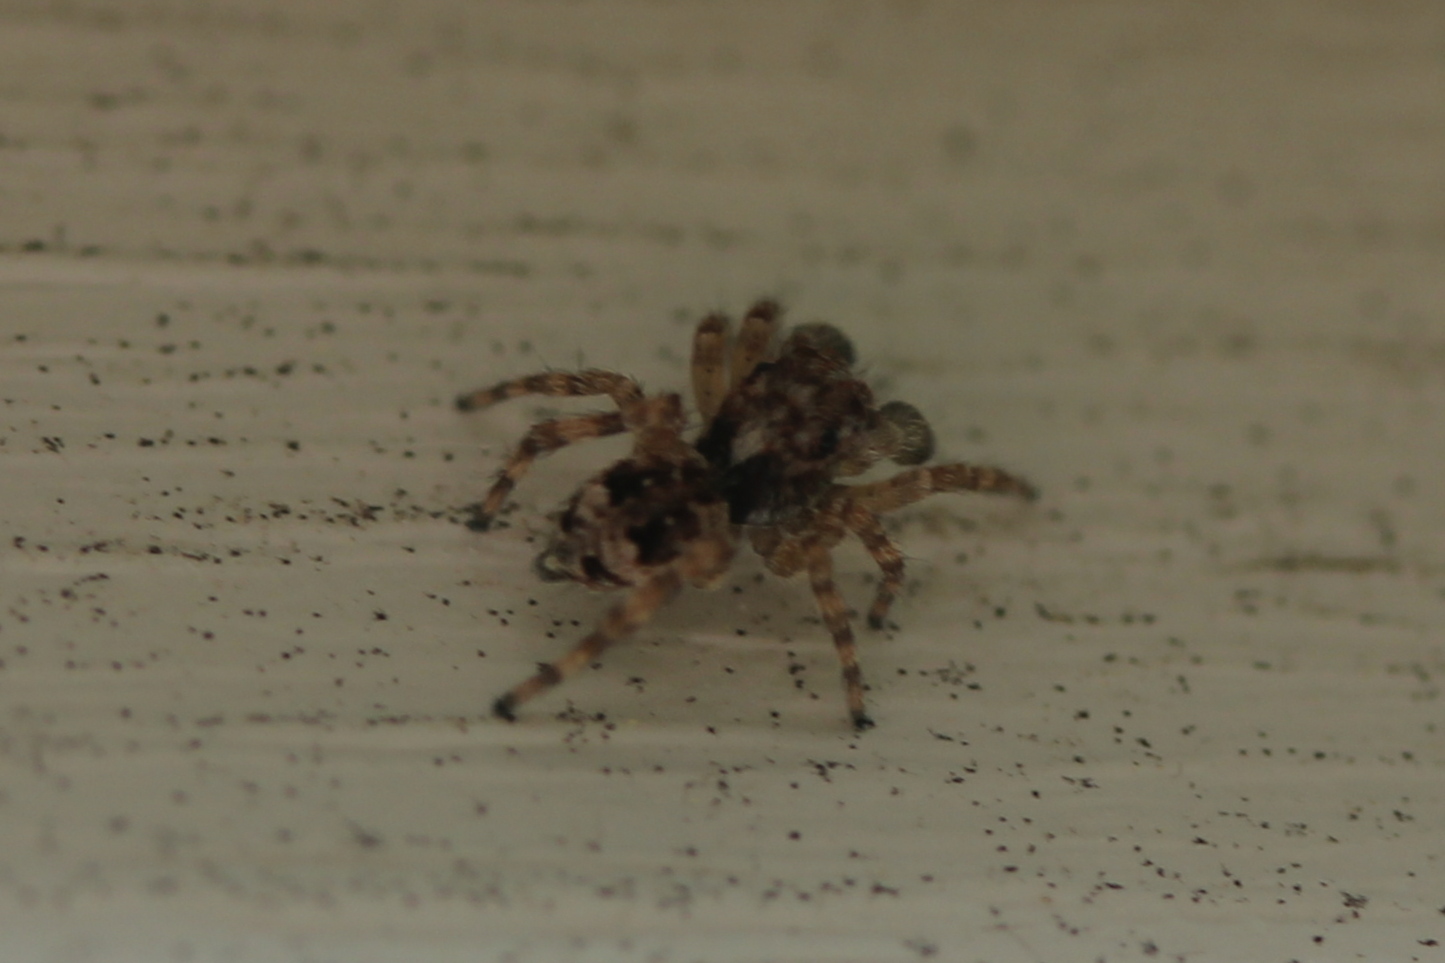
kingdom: Animalia
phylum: Arthropoda
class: Arachnida
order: Araneae
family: Salticidae
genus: Attulus
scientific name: Attulus fasciger
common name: Asiatic wall jumping spider
